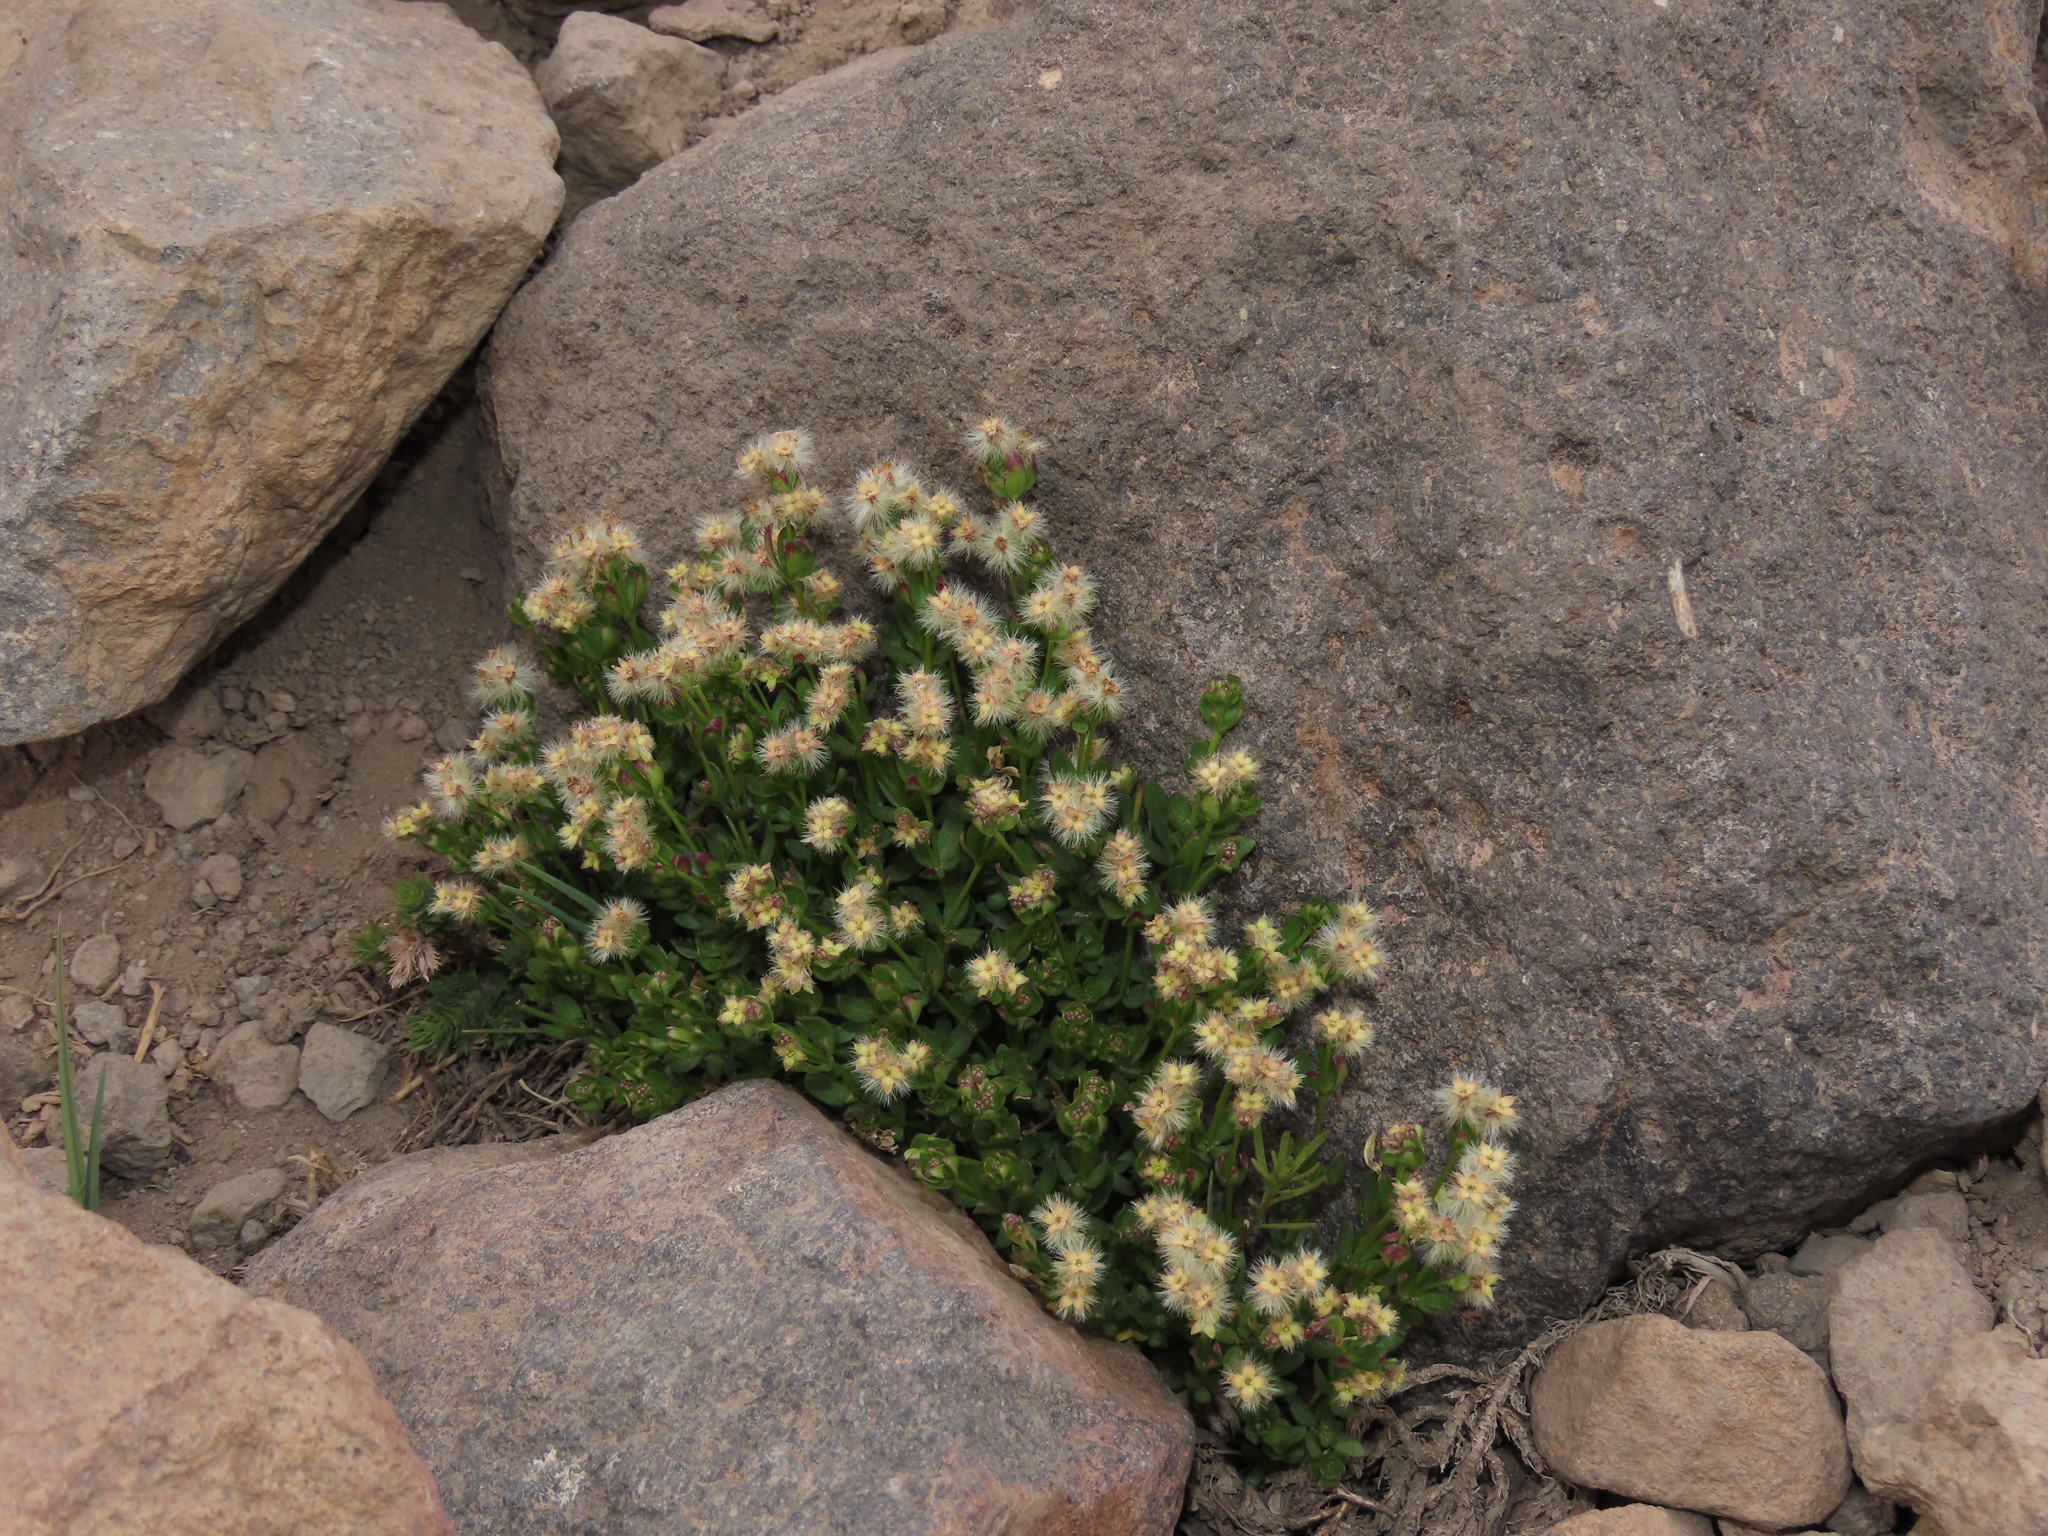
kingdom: Plantae
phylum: Tracheophyta
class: Magnoliopsida
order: Gentianales
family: Rubiaceae
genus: Galium
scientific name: Galium eriocarpum
